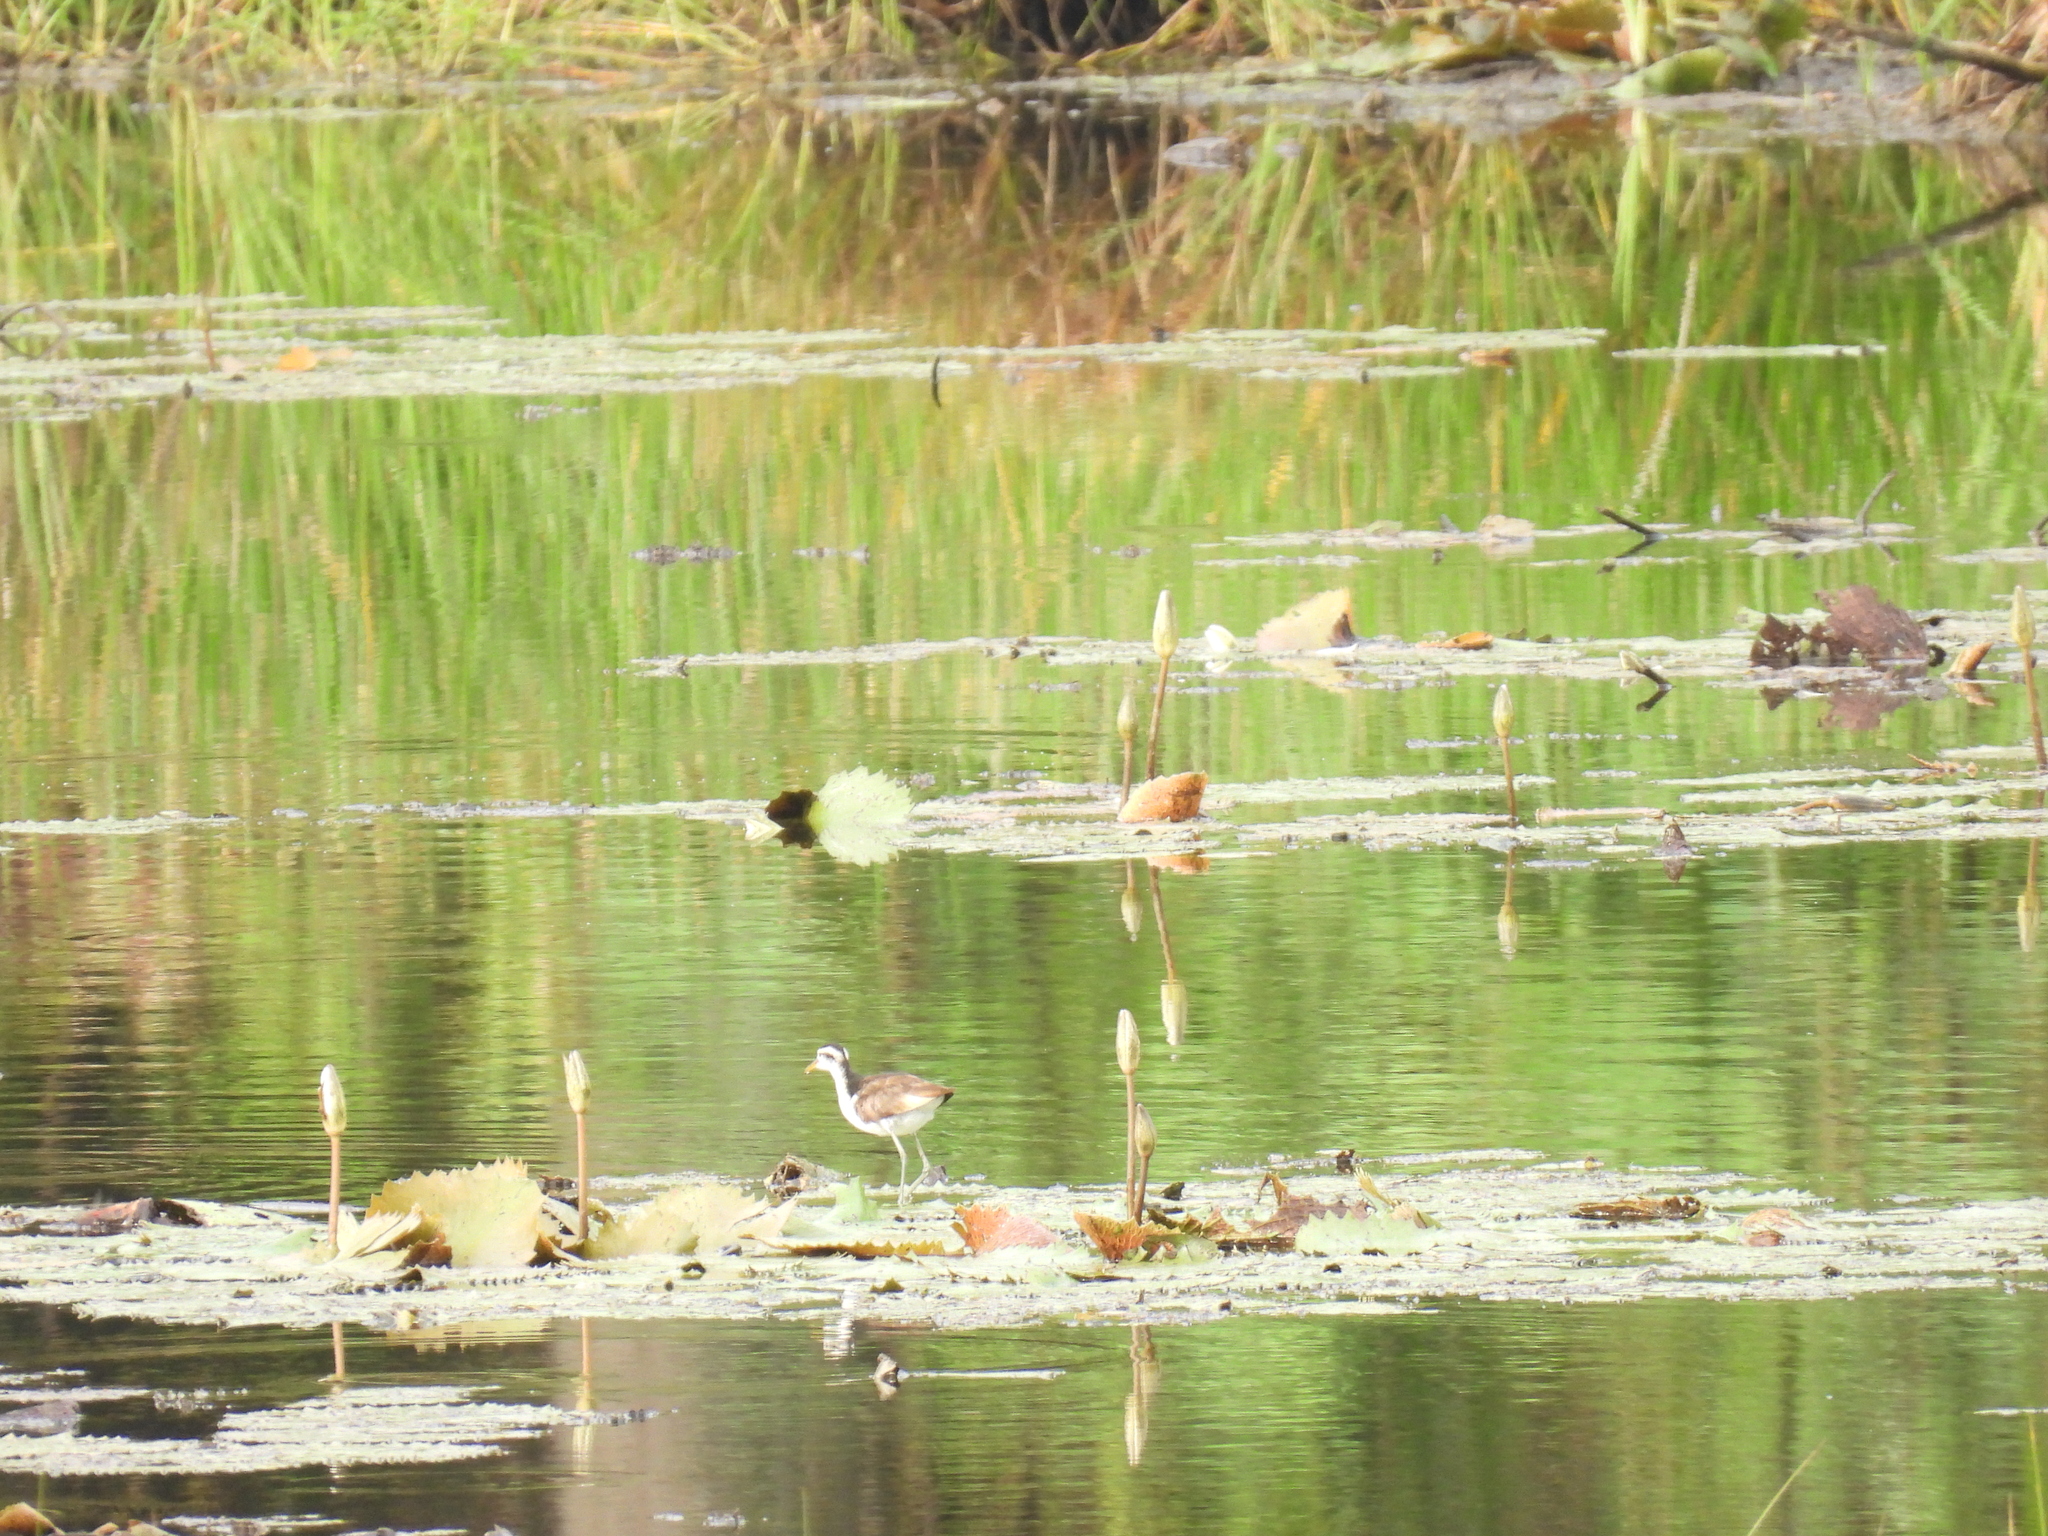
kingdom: Animalia
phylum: Chordata
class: Aves
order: Charadriiformes
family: Jacanidae
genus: Jacana
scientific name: Jacana jacana
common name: Wattled jacana
